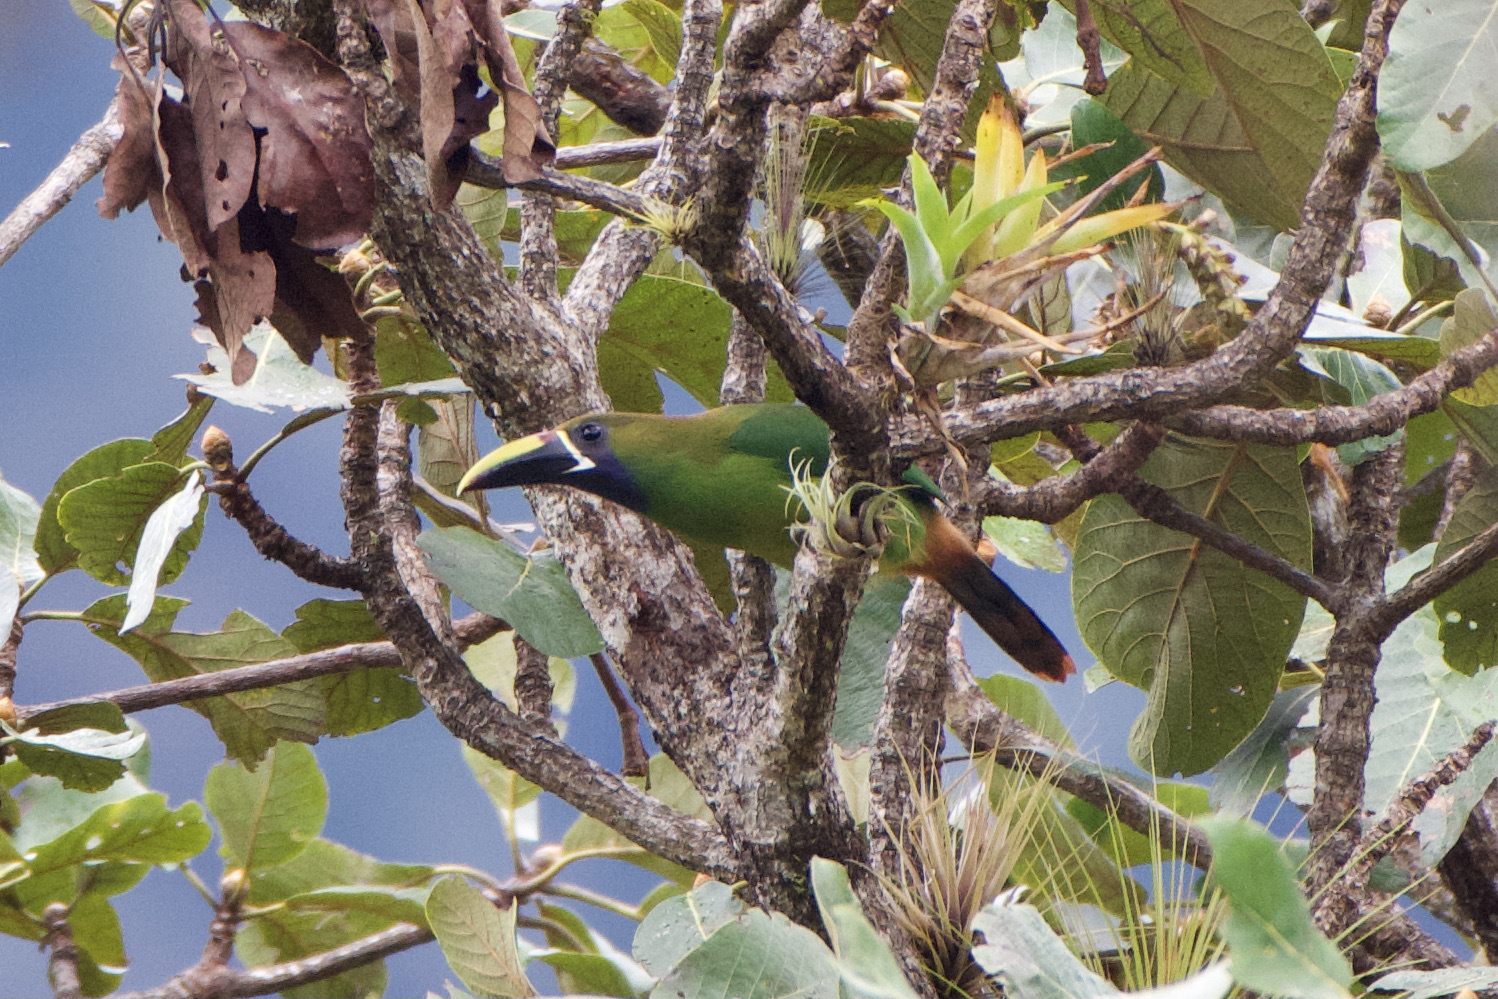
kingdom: Animalia
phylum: Chordata
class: Aves
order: Piciformes
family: Ramphastidae
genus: Aulacorhynchus
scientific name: Aulacorhynchus prasinus
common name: Emerald toucanet
